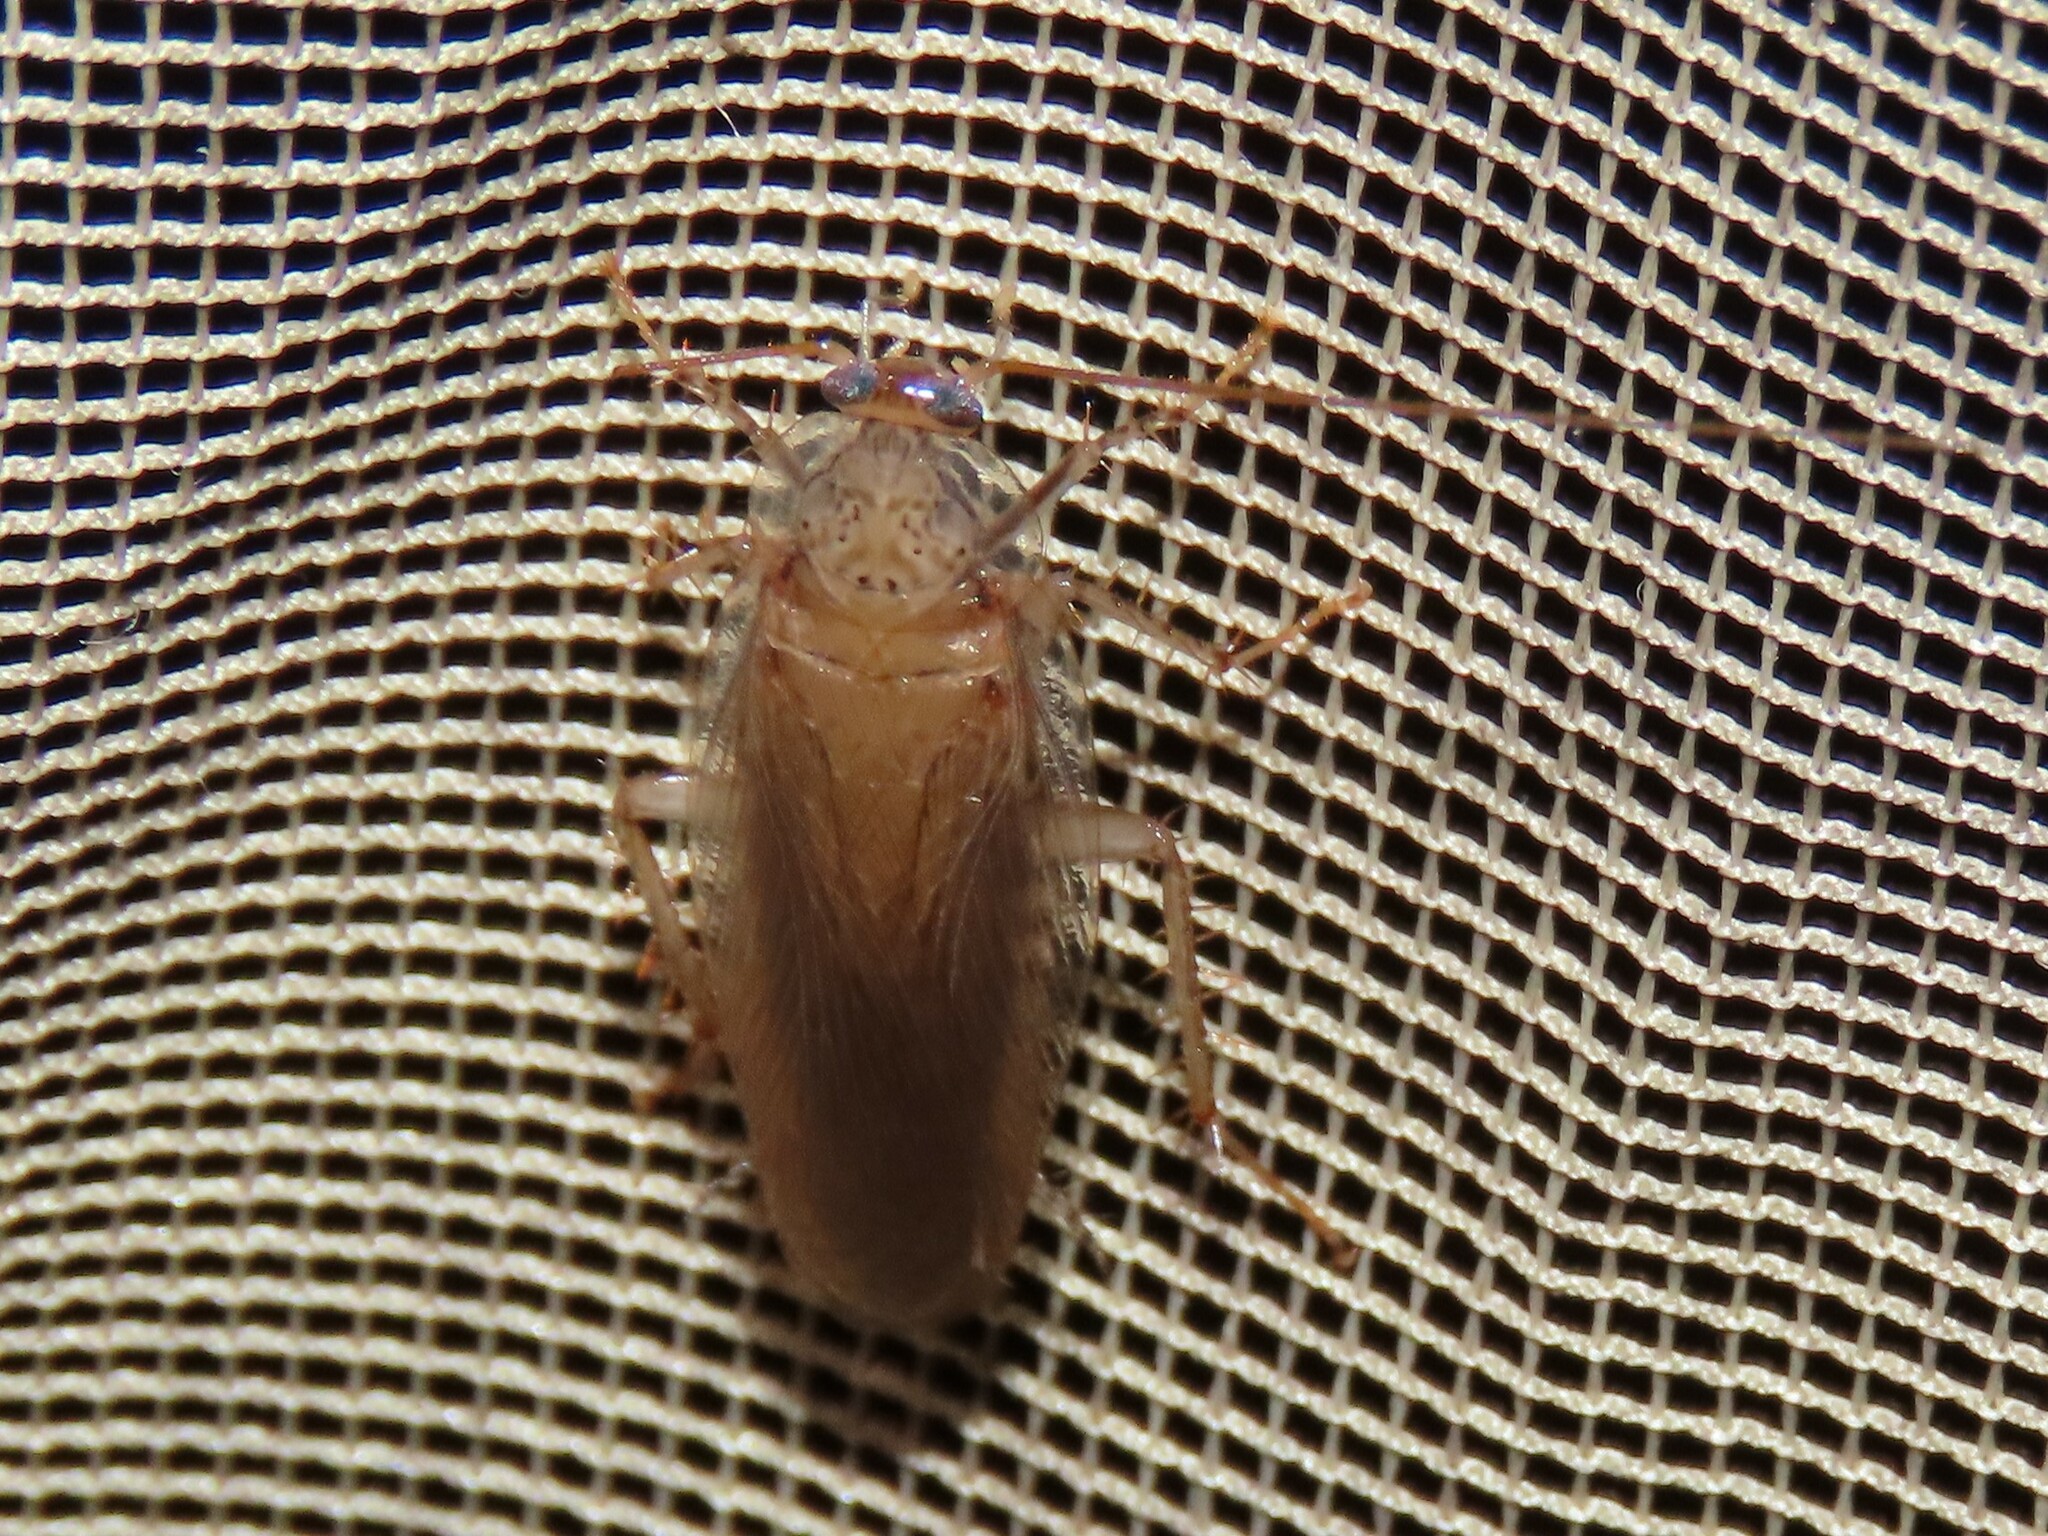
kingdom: Animalia
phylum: Arthropoda
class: Insecta
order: Blattodea
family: Ectobiidae
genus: Cariblatta
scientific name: Cariblatta lutea
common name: Small yellow cockroach
